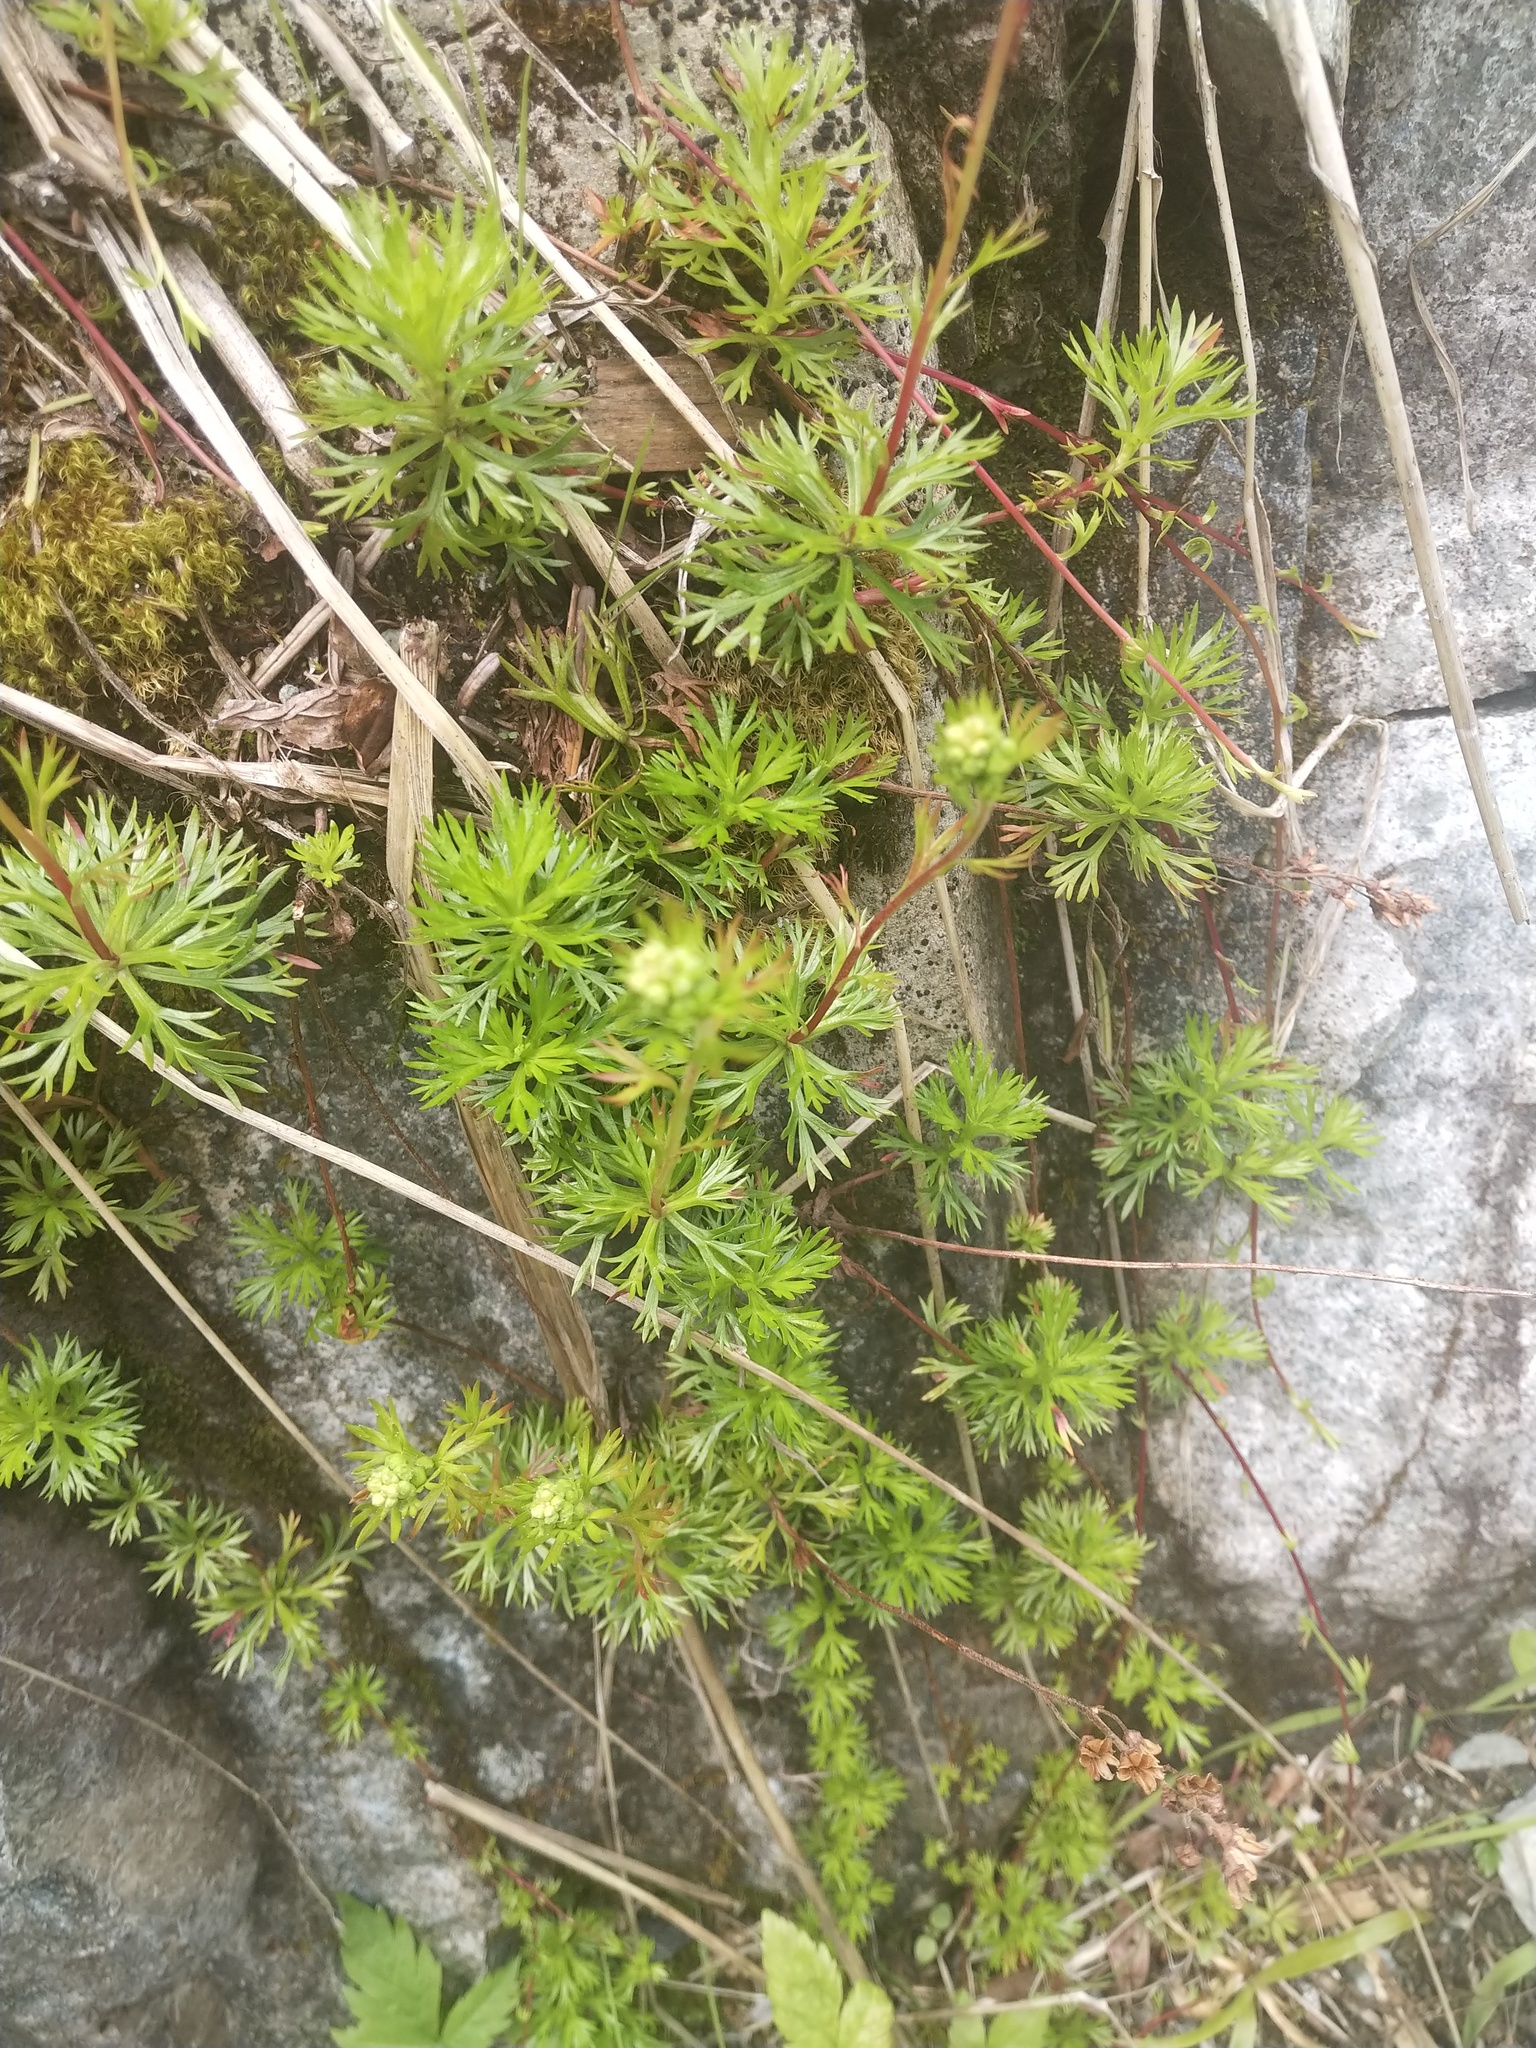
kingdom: Plantae
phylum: Tracheophyta
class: Magnoliopsida
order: Rosales
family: Rosaceae
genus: Luetkea
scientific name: Luetkea pectinata
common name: Partridgefoot
